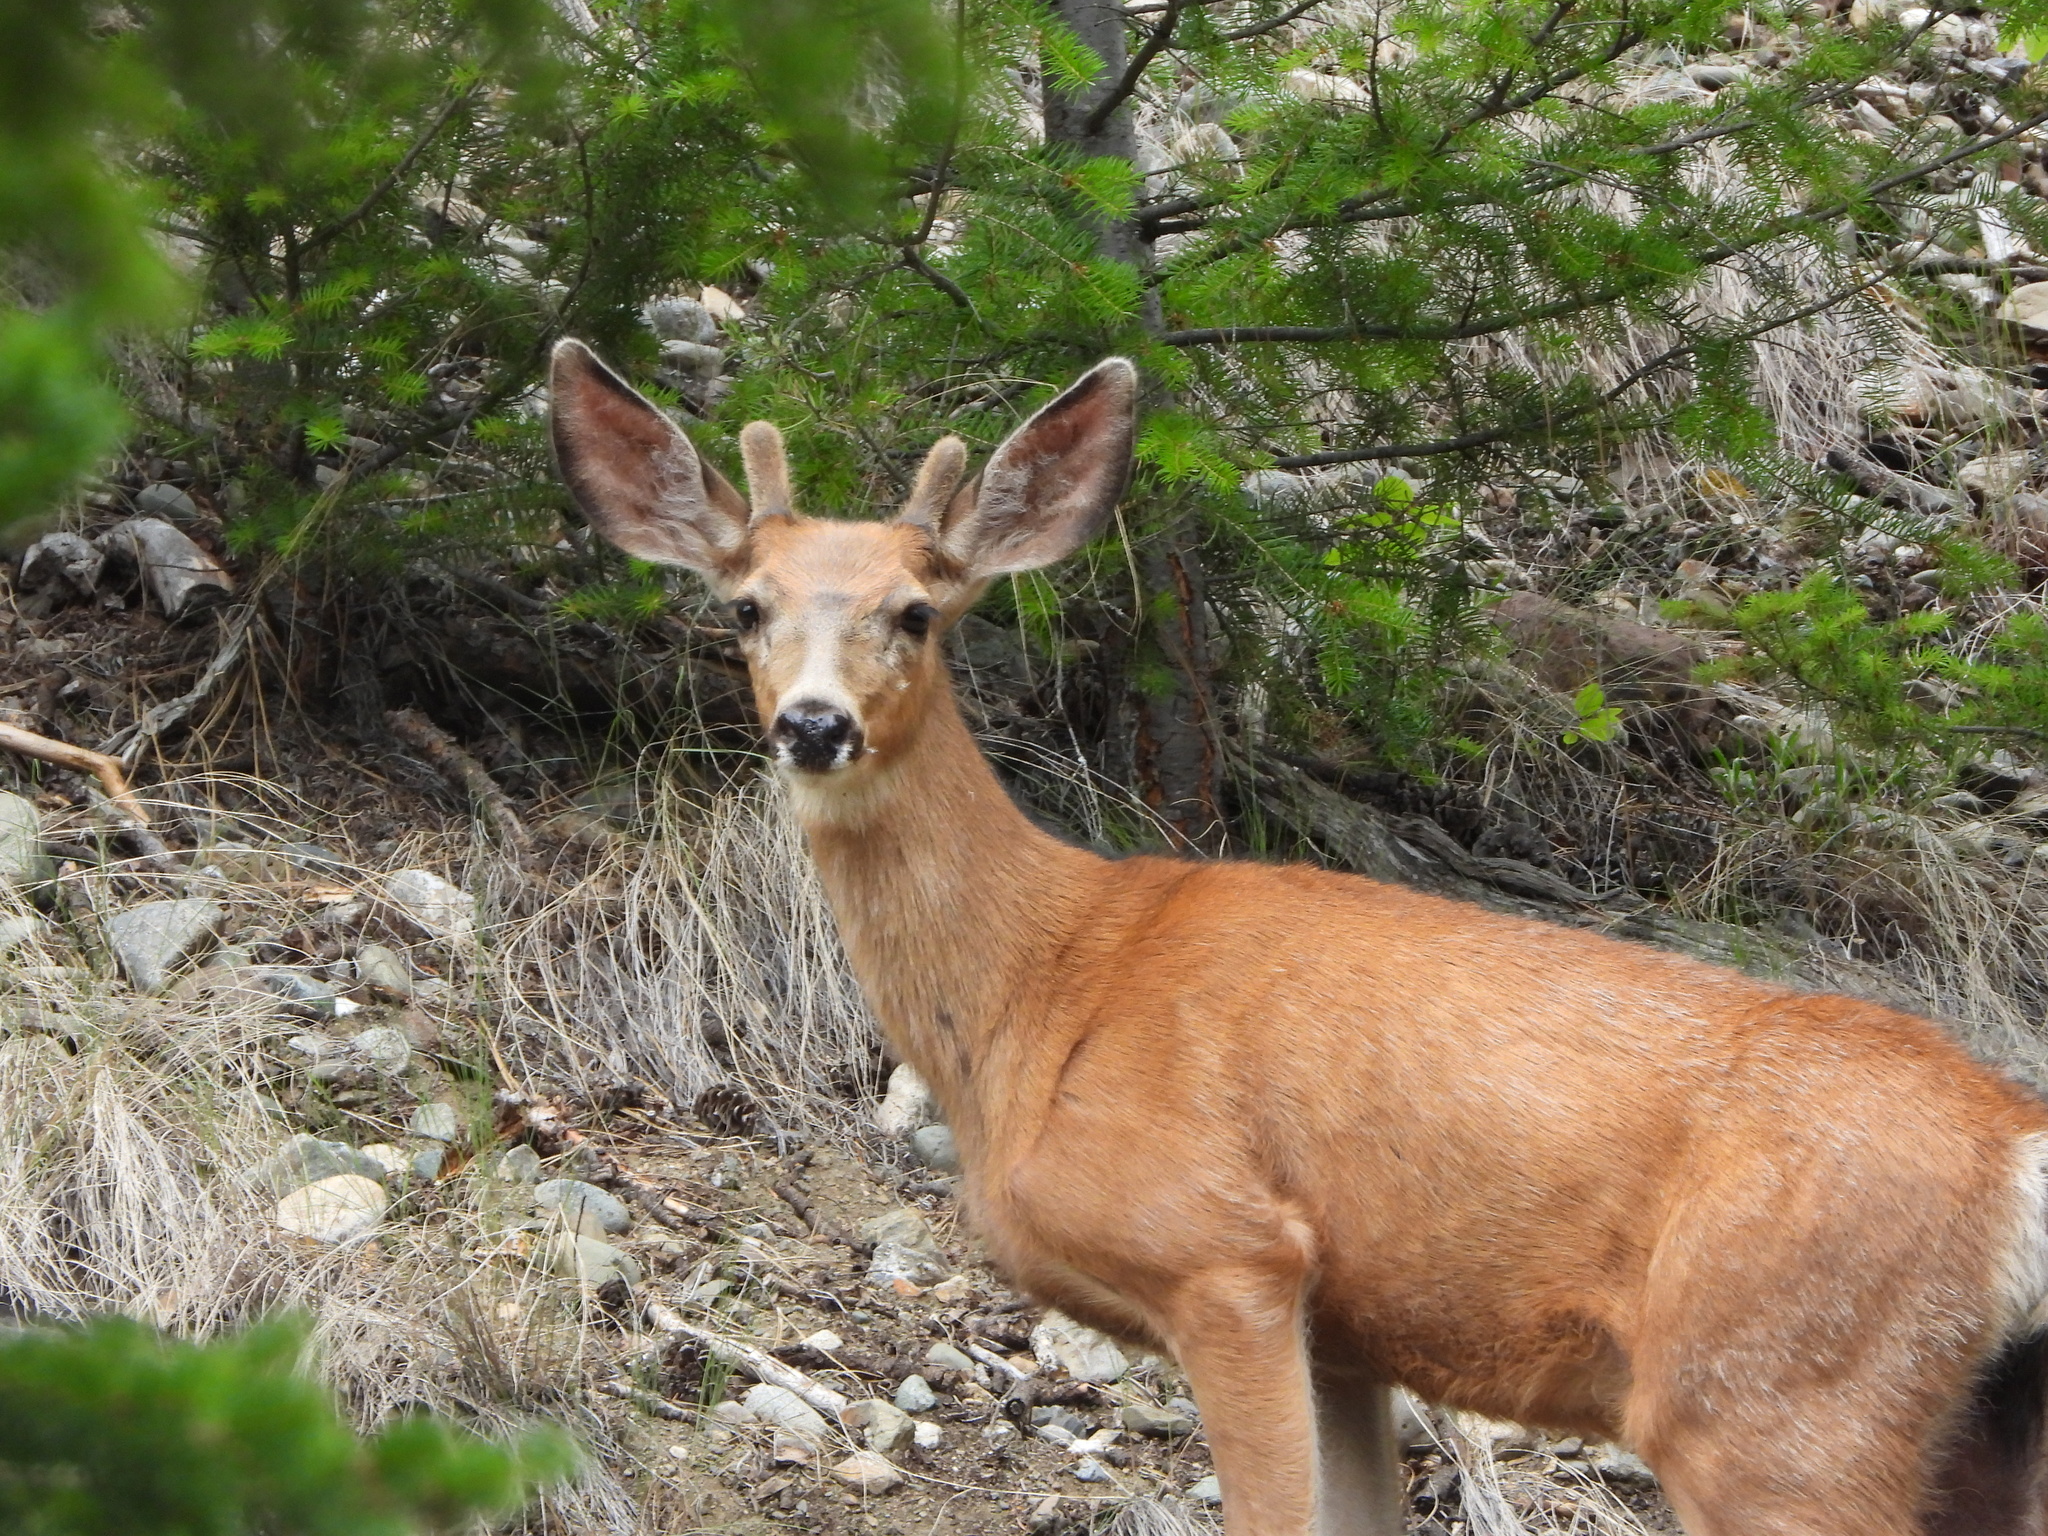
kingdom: Animalia
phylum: Chordata
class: Mammalia
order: Artiodactyla
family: Cervidae
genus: Odocoileus
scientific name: Odocoileus hemionus
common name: Mule deer
